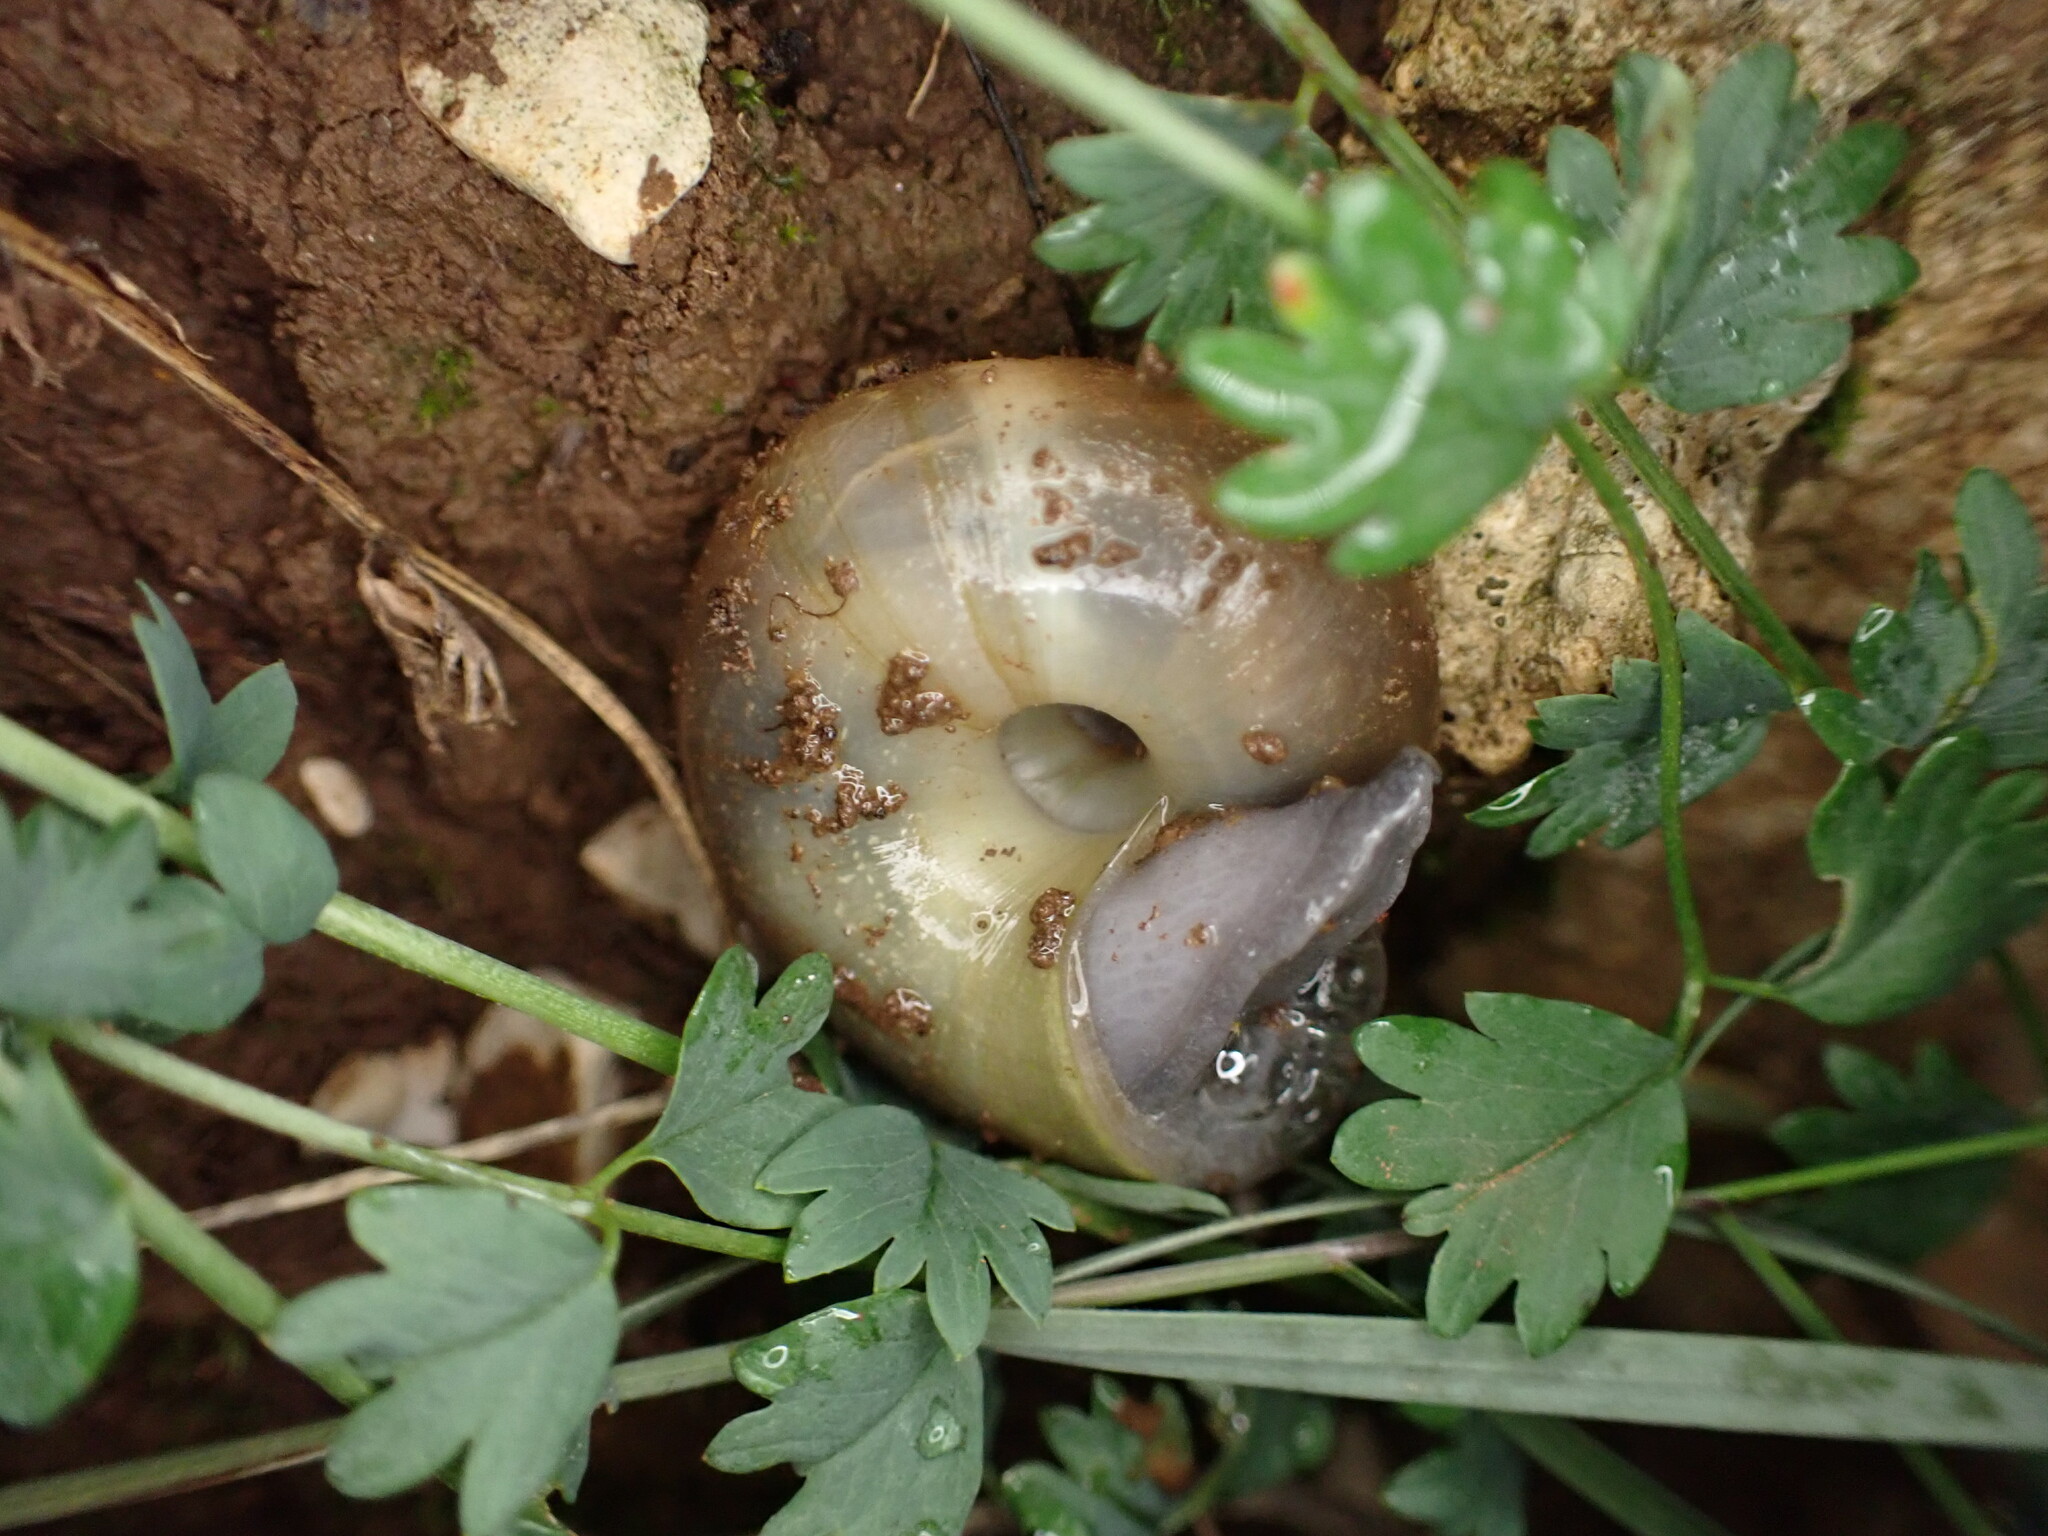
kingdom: Animalia
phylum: Mollusca
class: Gastropoda
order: Stylommatophora
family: Zonitidae
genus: Zonites
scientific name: Zonites algirus
